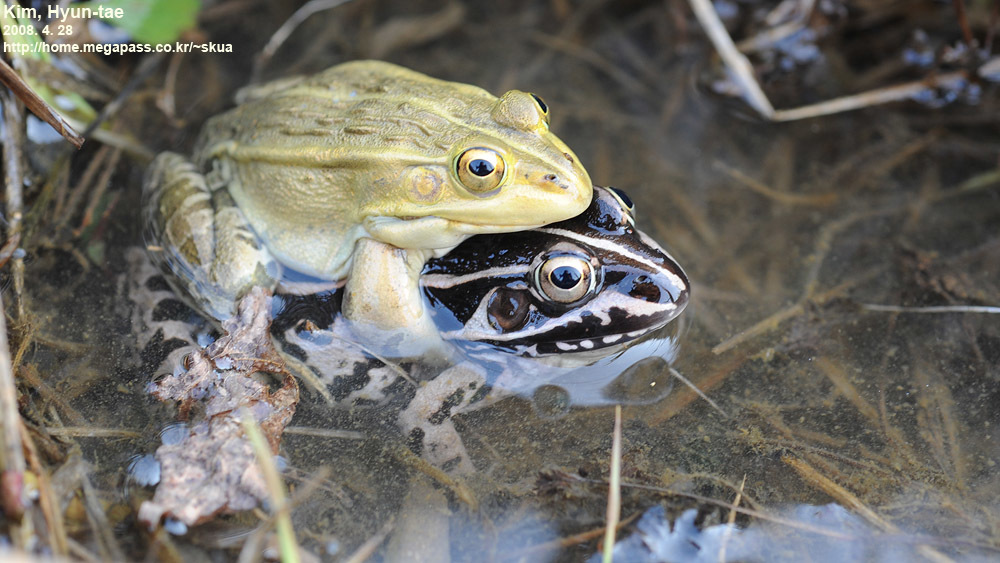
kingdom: Animalia
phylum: Chordata
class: Amphibia
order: Anura
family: Ranidae
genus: Pelophylax
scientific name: Pelophylax nigromaculatus
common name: Black-spotted pond frog
